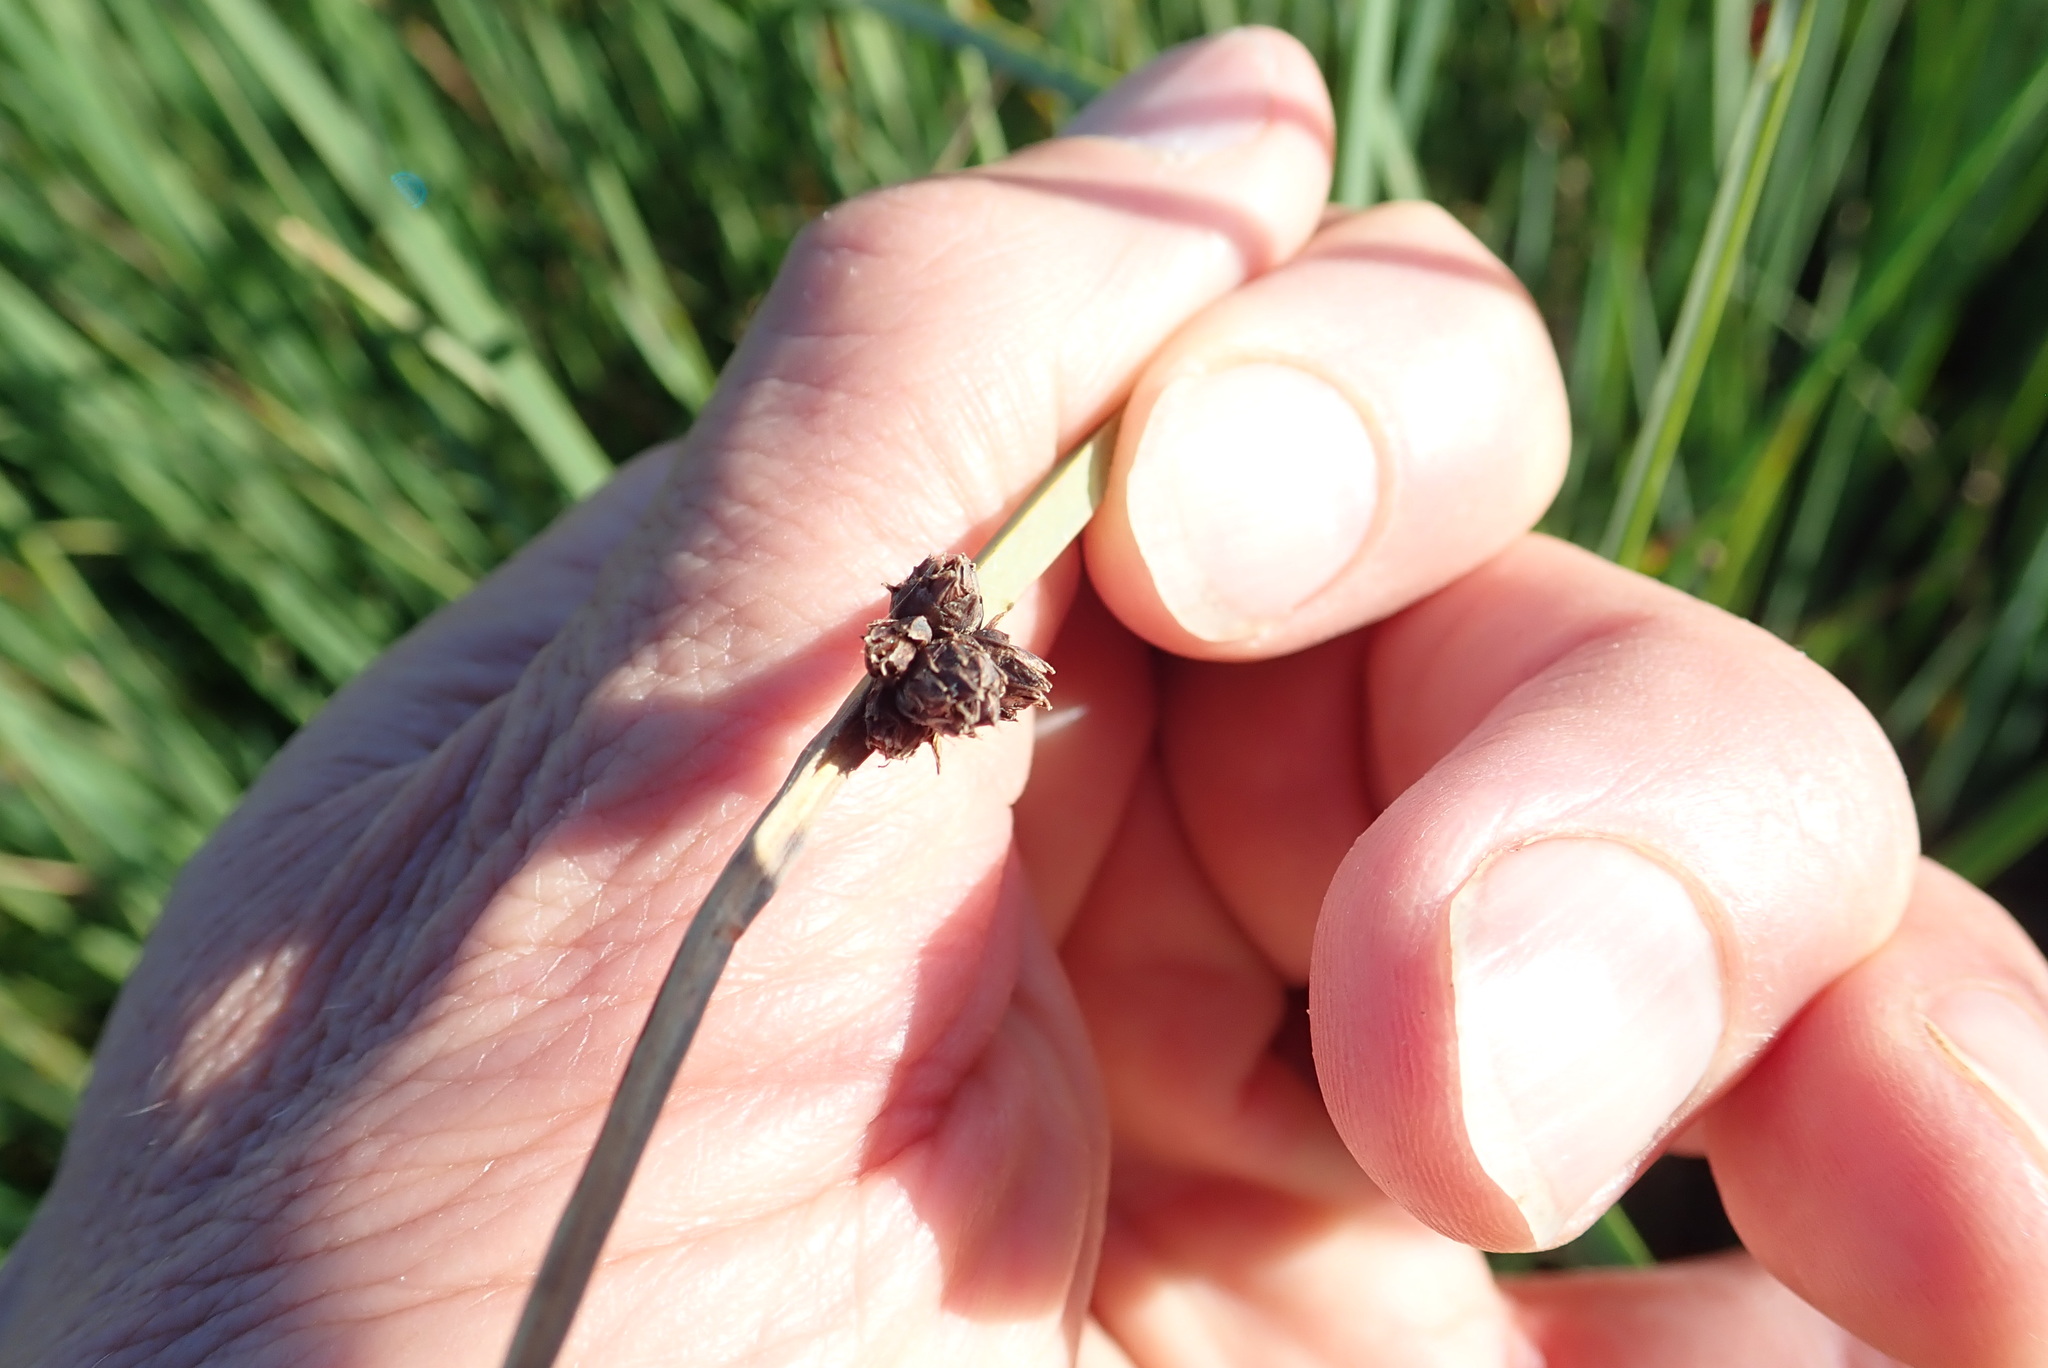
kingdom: Plantae
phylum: Tracheophyta
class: Liliopsida
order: Poales
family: Cyperaceae
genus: Schoenoplectus
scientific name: Schoenoplectus pungens
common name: Sharp club-rush
